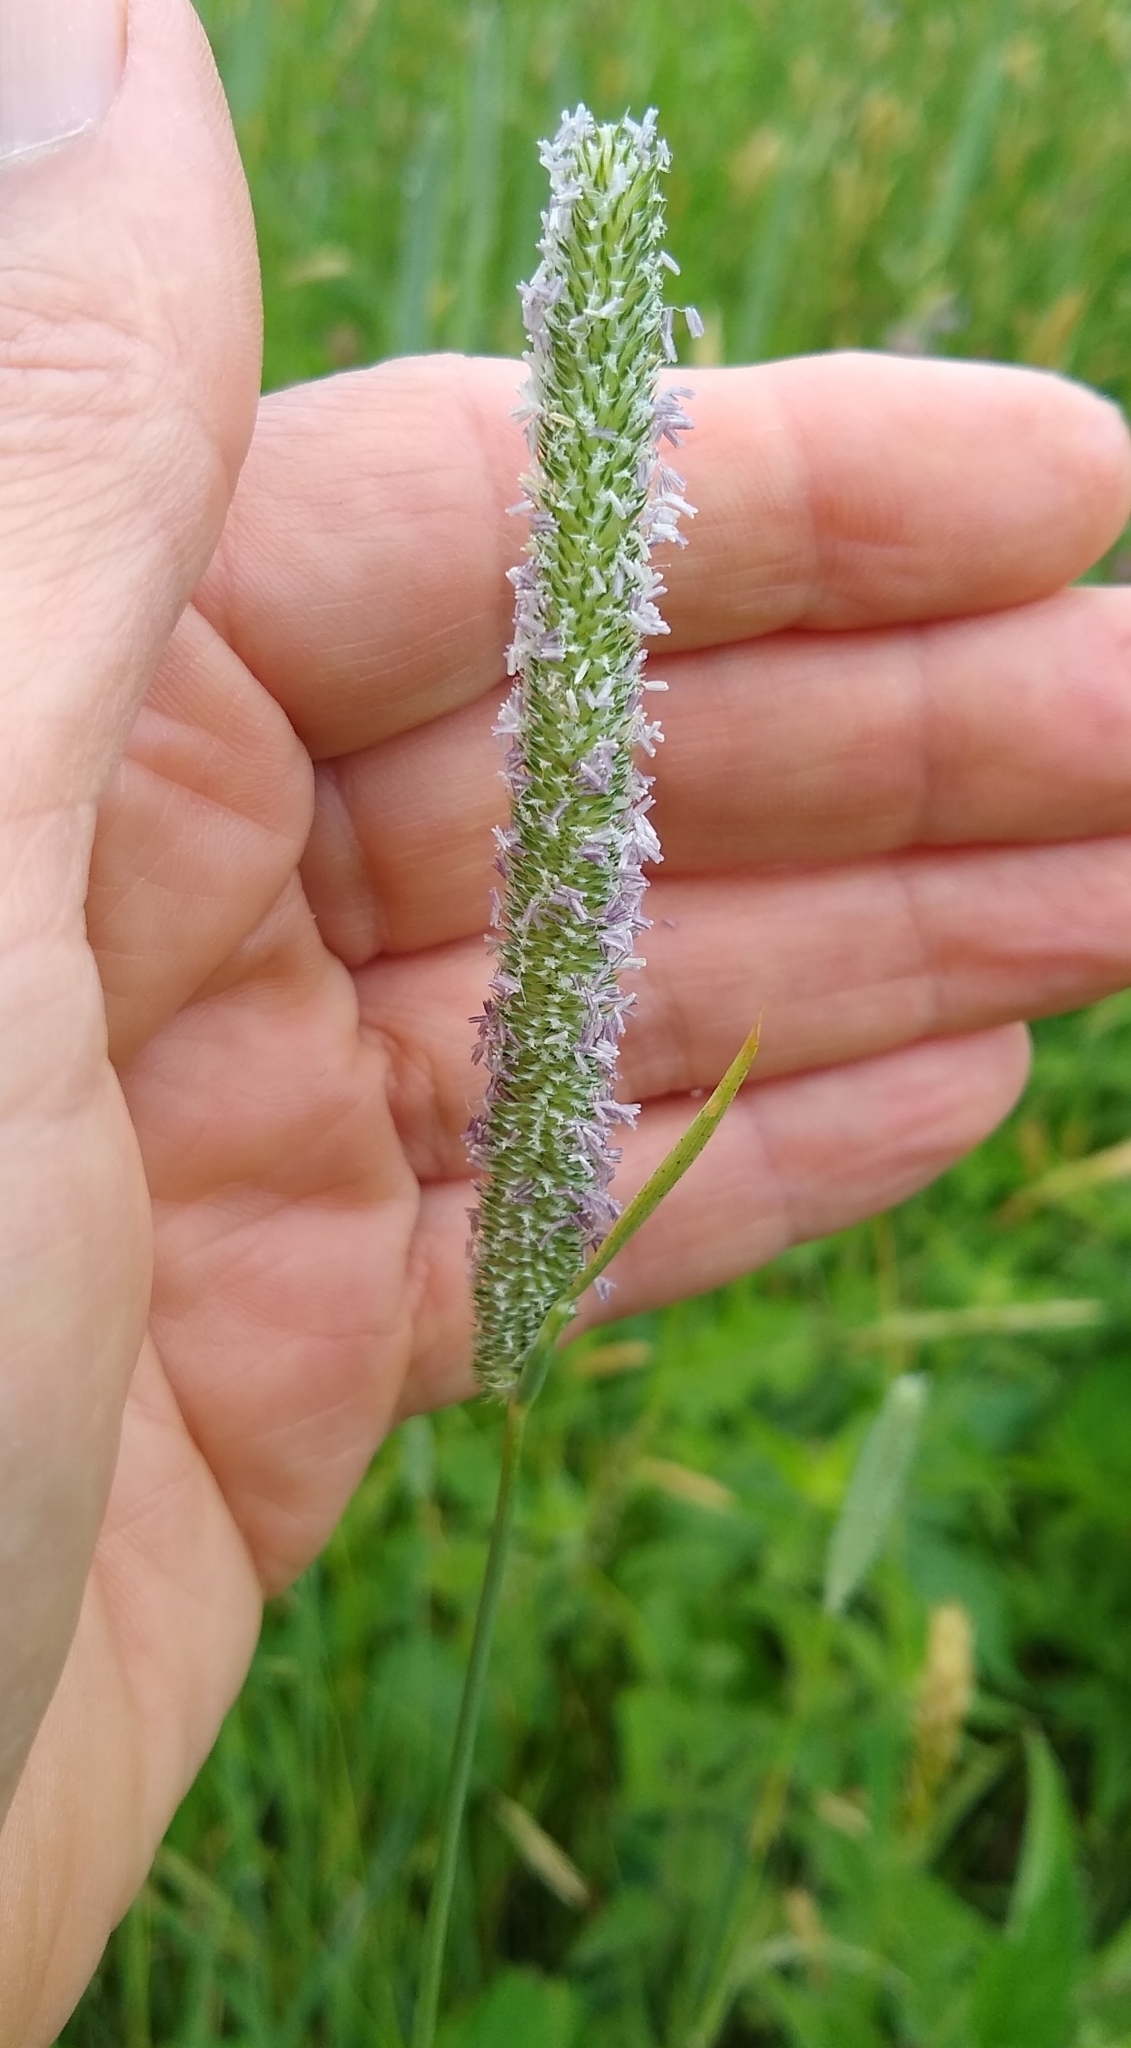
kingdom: Plantae
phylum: Tracheophyta
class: Liliopsida
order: Poales
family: Poaceae
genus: Phleum
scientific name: Phleum pratense
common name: Timothy grass
